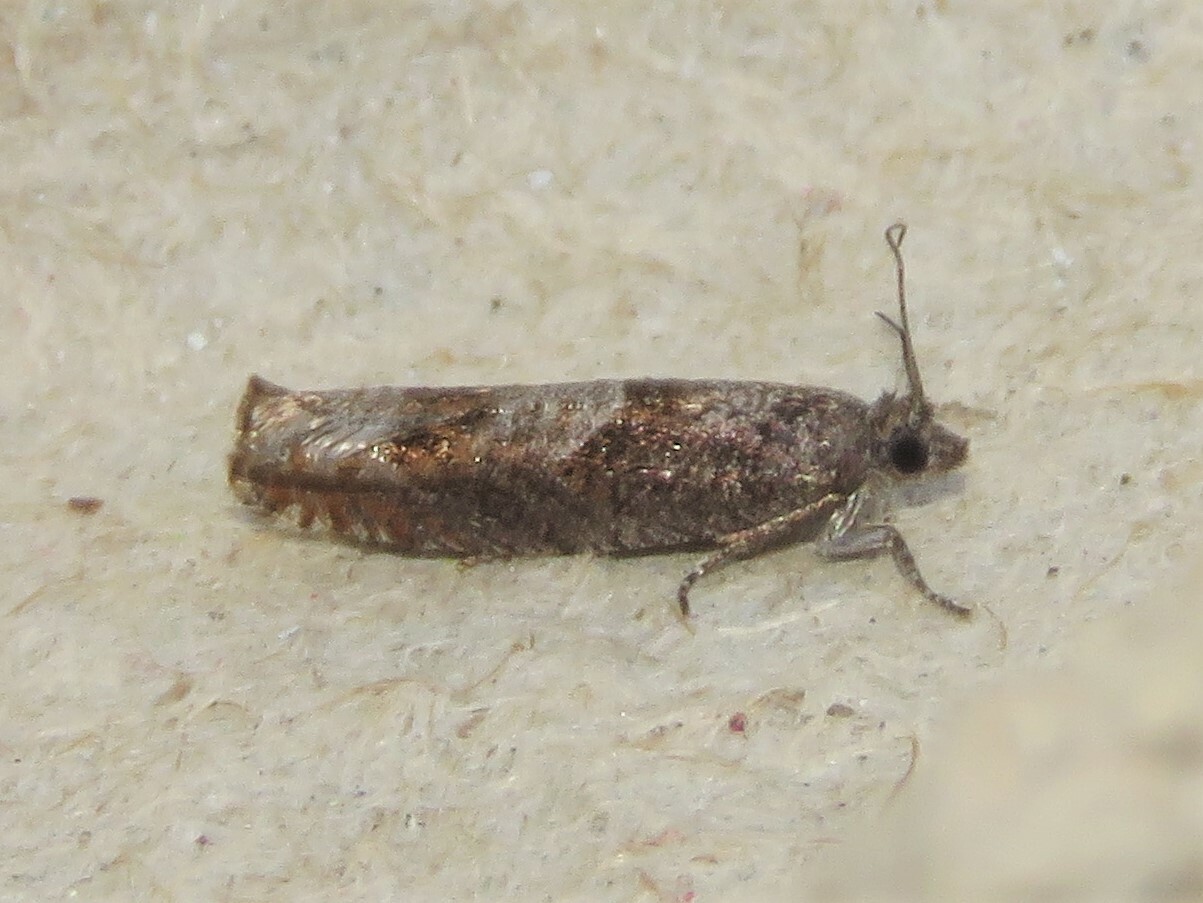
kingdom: Animalia
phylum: Arthropoda
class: Insecta
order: Lepidoptera
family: Tortricidae
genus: Pseudexentera
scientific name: Pseudexentera mali
